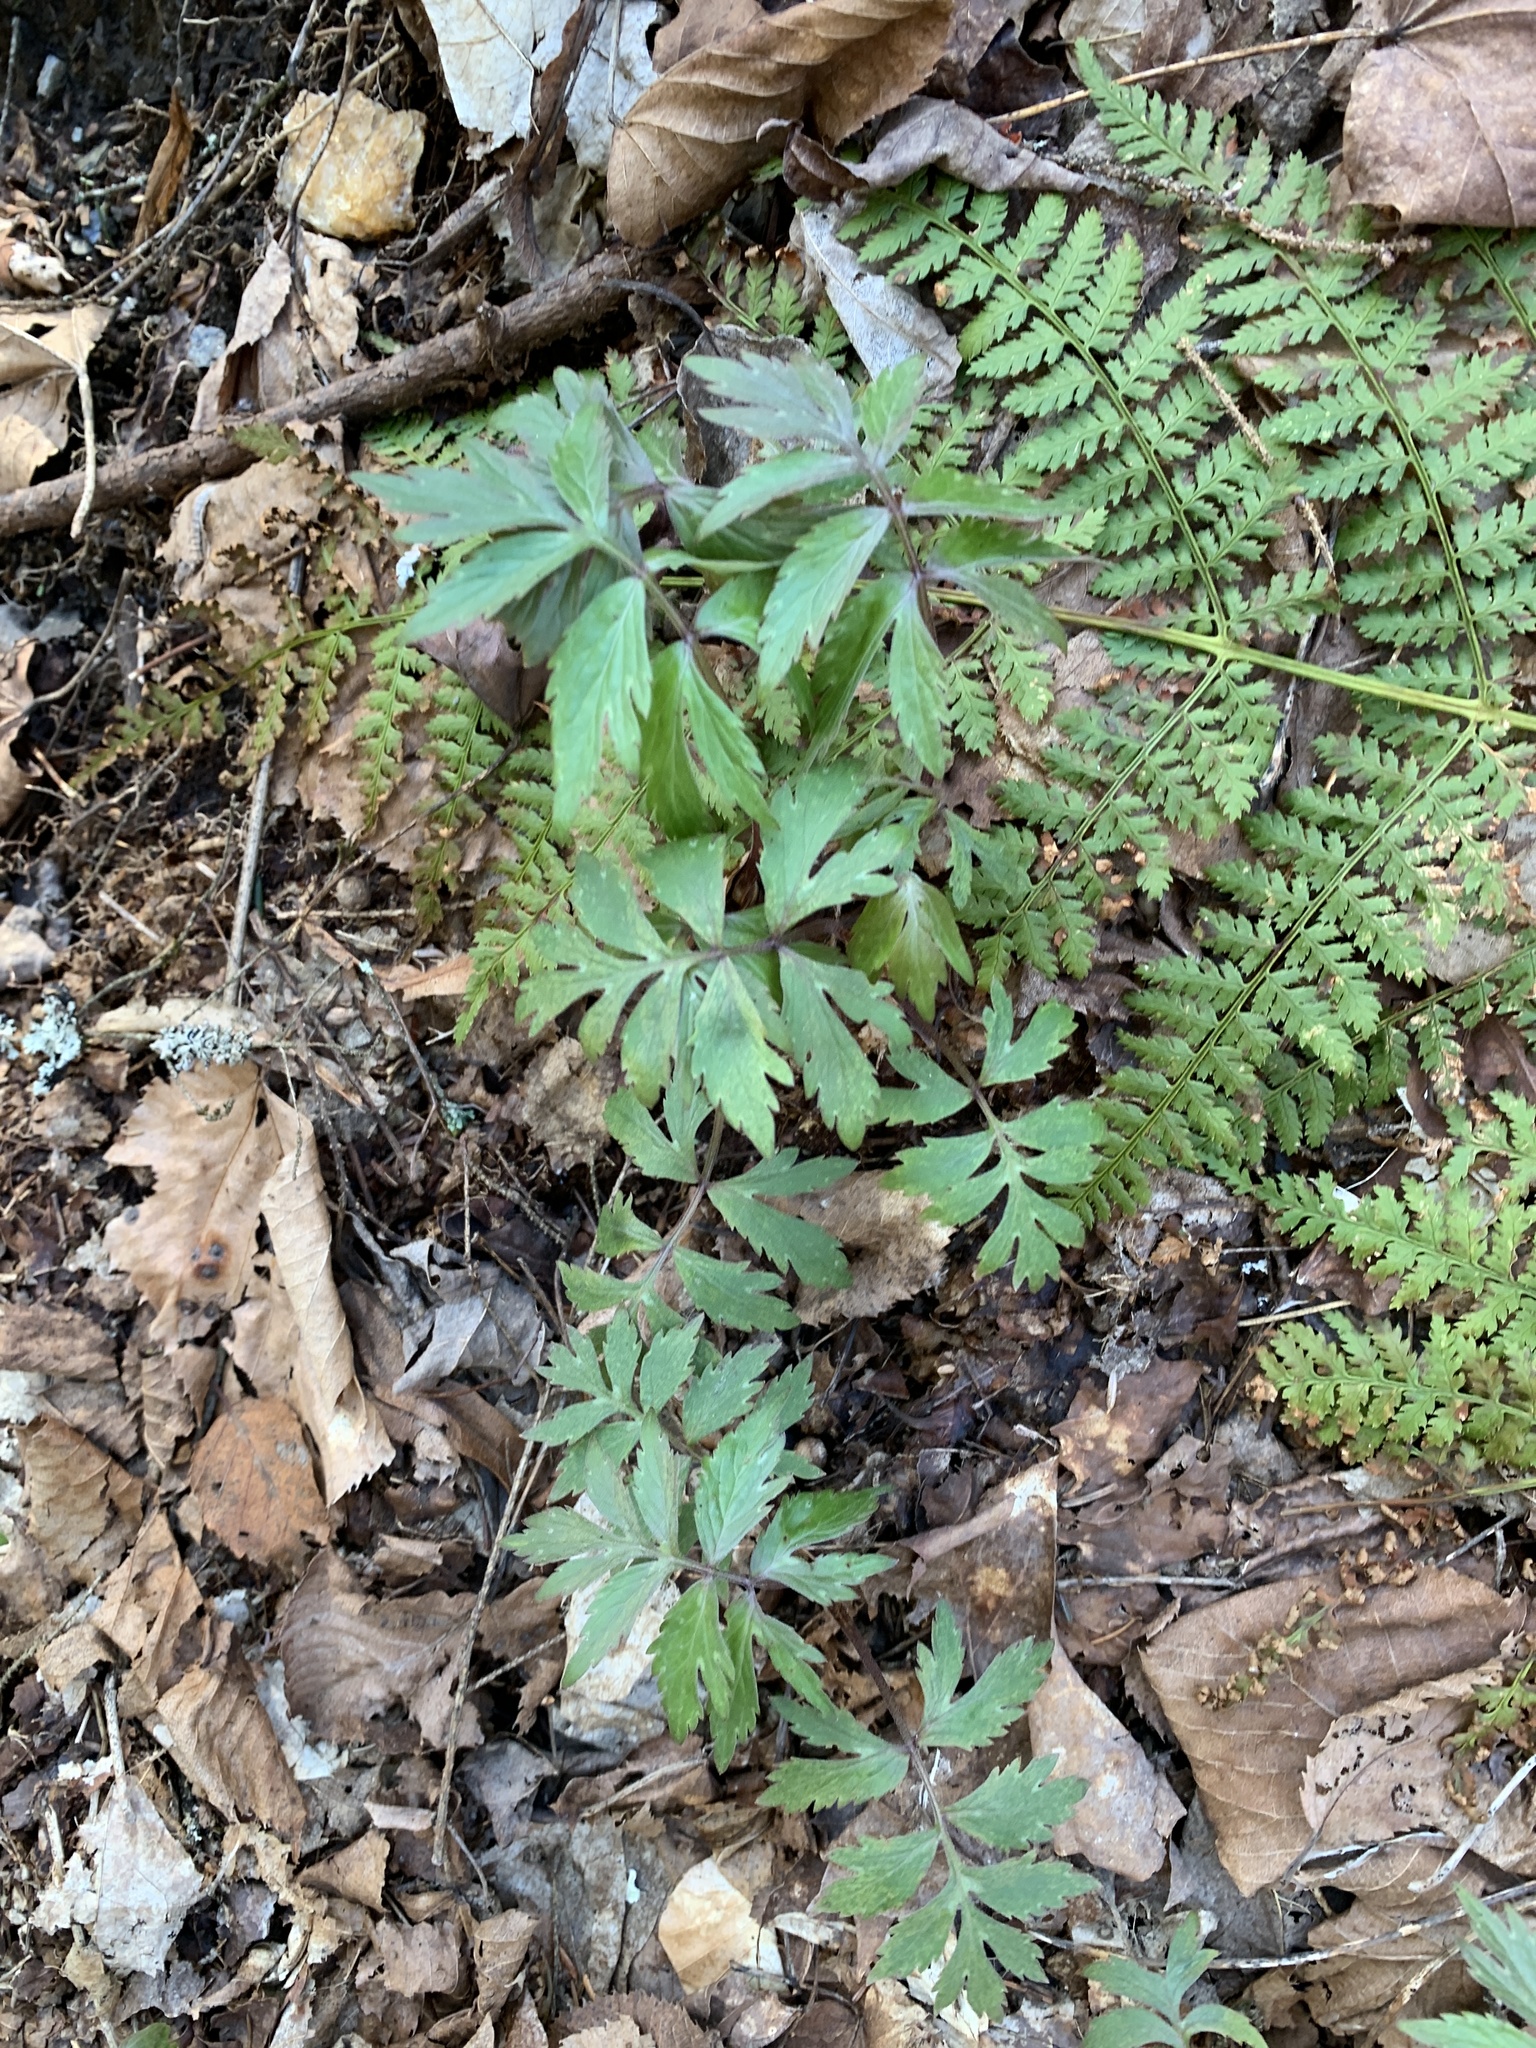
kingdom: Plantae
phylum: Tracheophyta
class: Magnoliopsida
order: Boraginales
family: Hydrophyllaceae
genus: Hydrophyllum
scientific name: Hydrophyllum virginianum
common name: Virginia waterleaf
